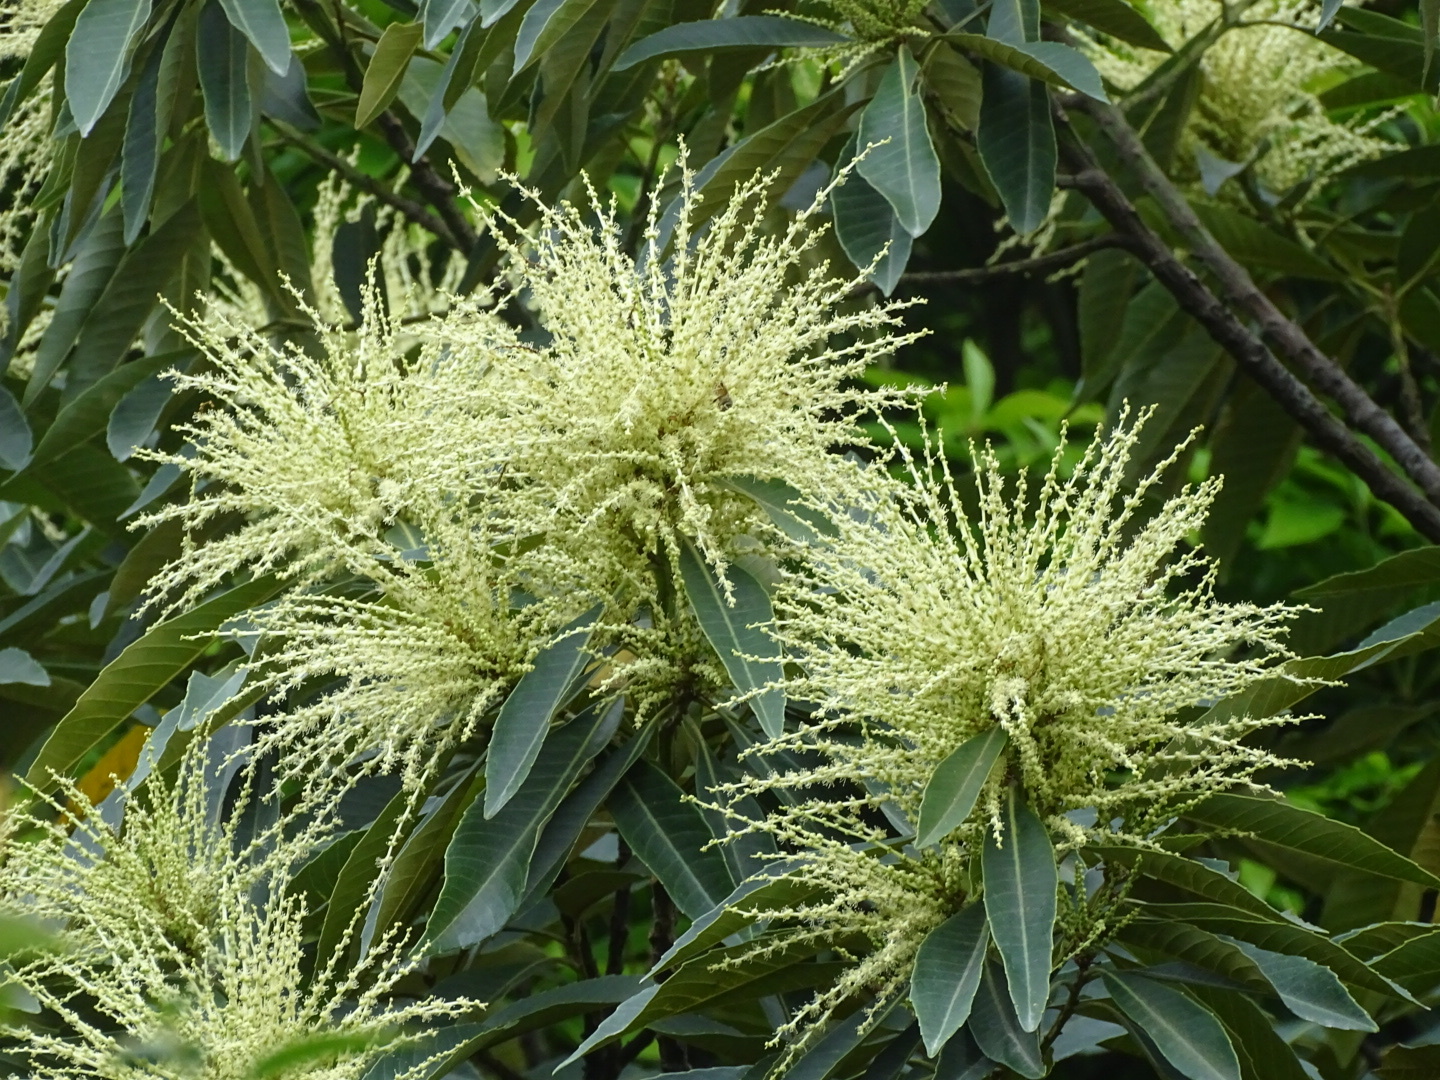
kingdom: Plantae
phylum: Tracheophyta
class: Magnoliopsida
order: Fagales
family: Fagaceae
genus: Castanopsis
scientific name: Castanopsis fissa
